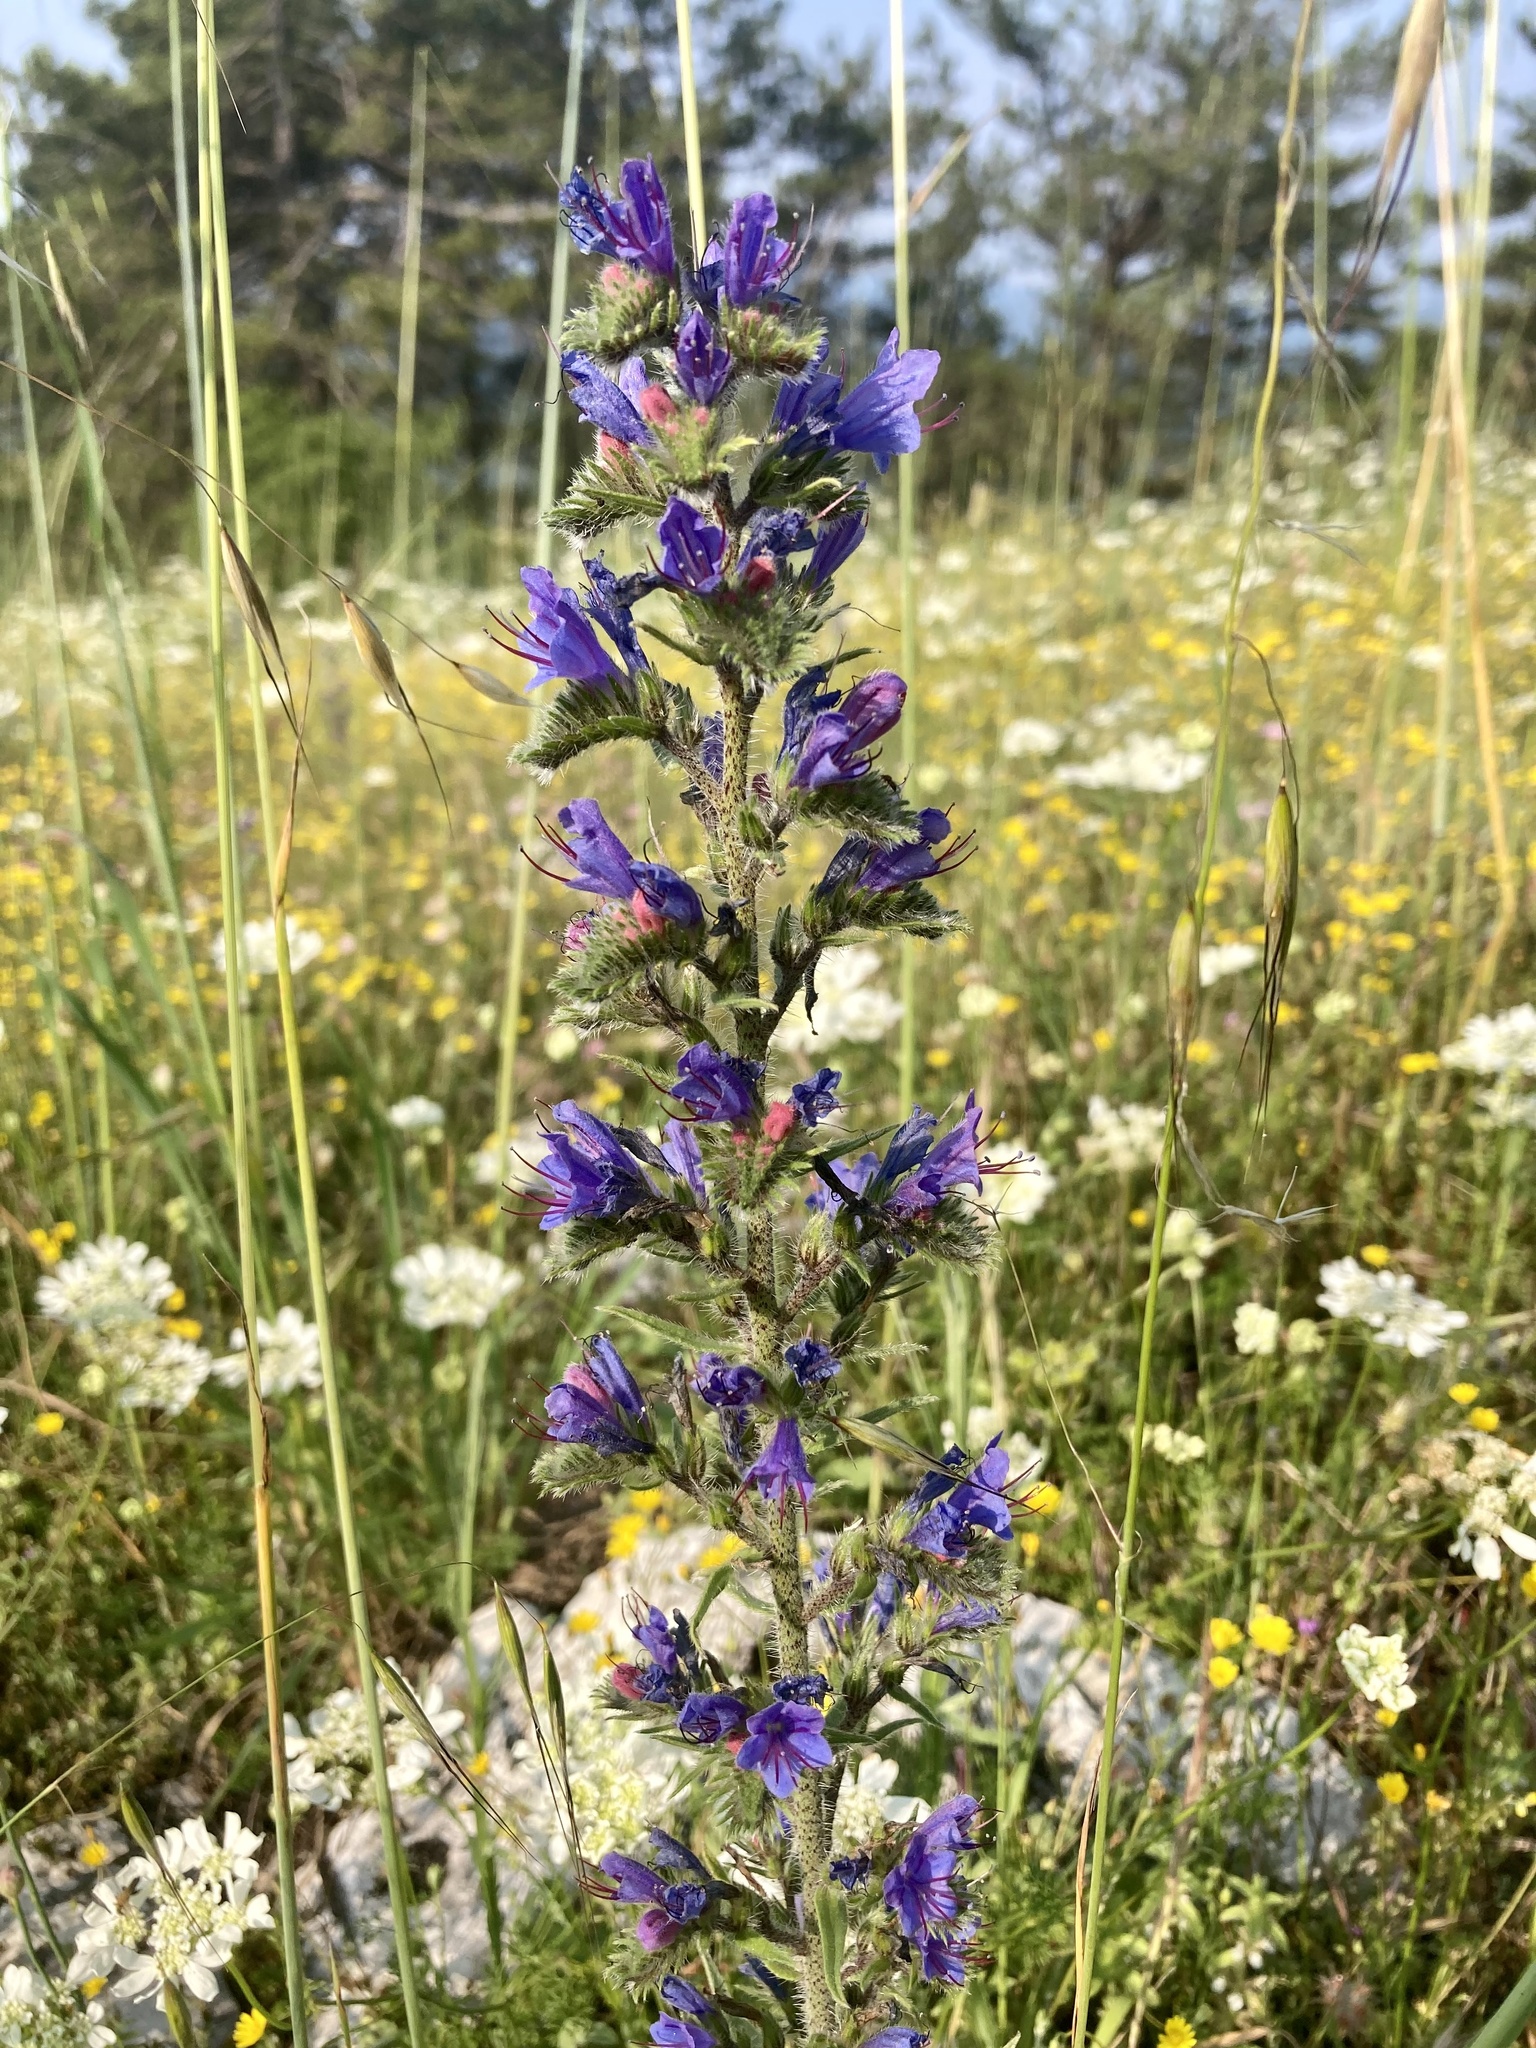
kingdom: Plantae
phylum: Tracheophyta
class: Magnoliopsida
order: Boraginales
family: Boraginaceae
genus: Echium
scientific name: Echium vulgare
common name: Common viper's bugloss
